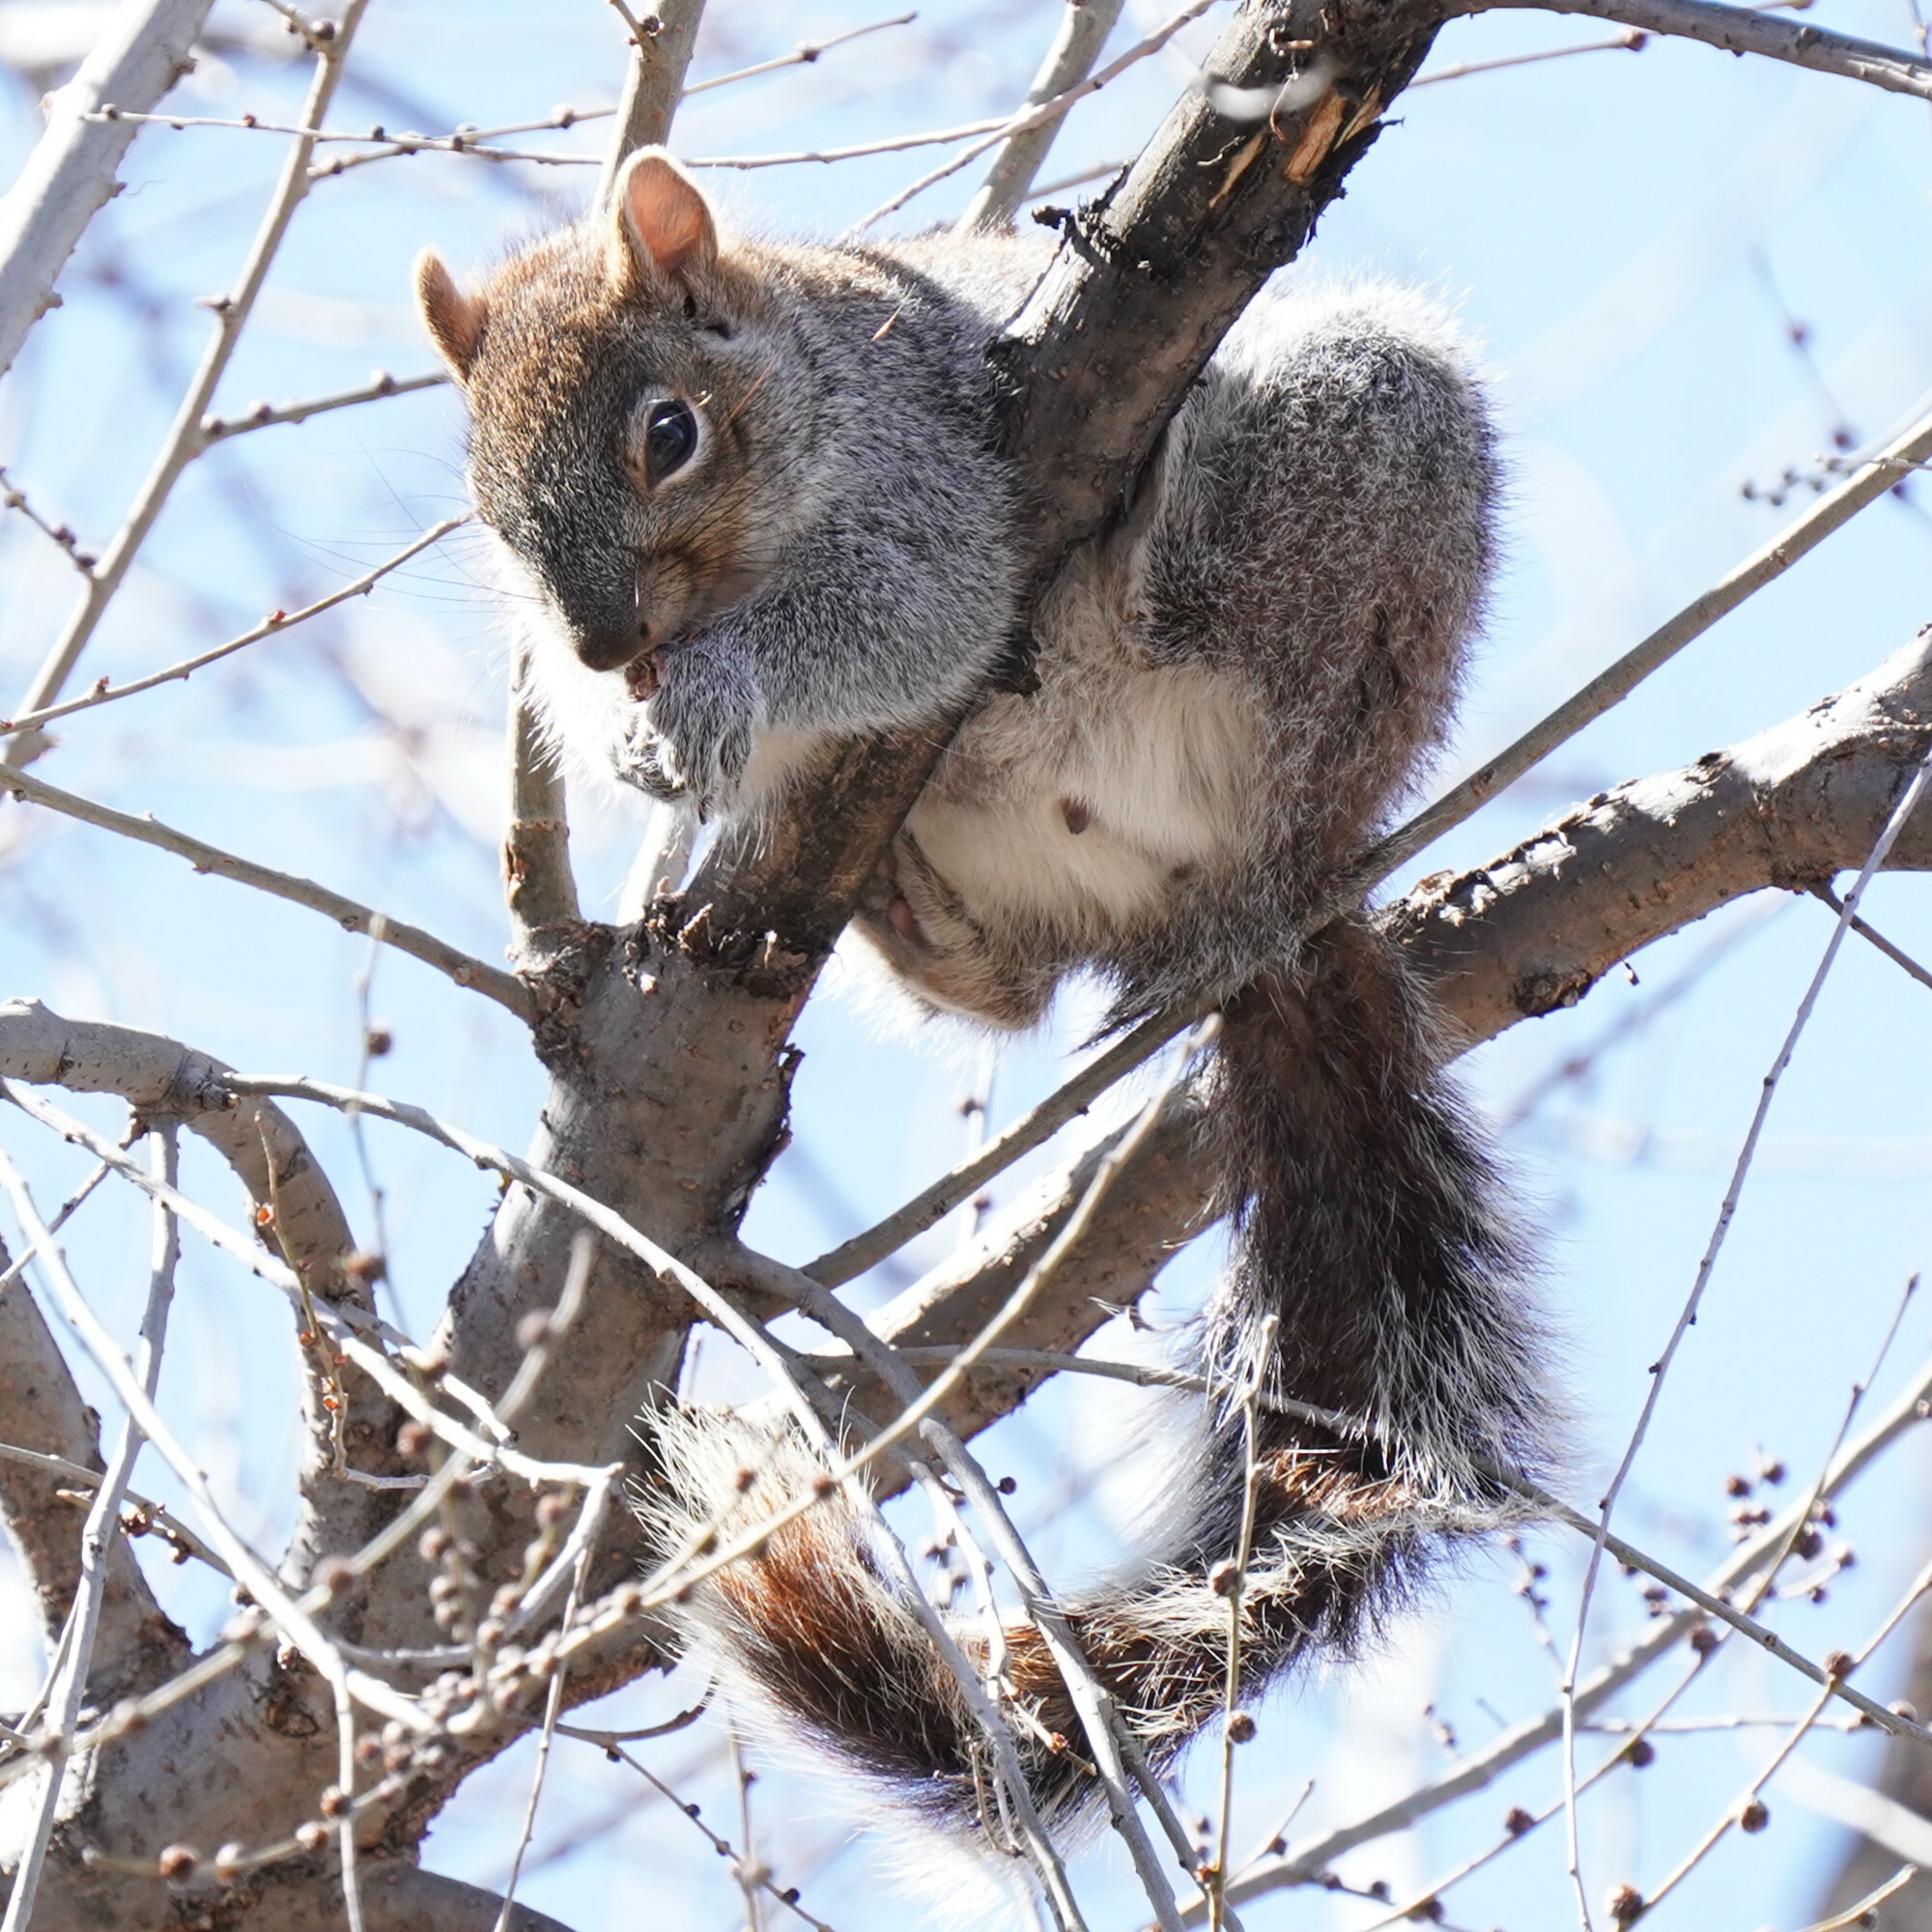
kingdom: Animalia
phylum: Chordata
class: Mammalia
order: Rodentia
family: Sciuridae
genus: Sciurus
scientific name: Sciurus arizonensis
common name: Arizona gray squirrel
